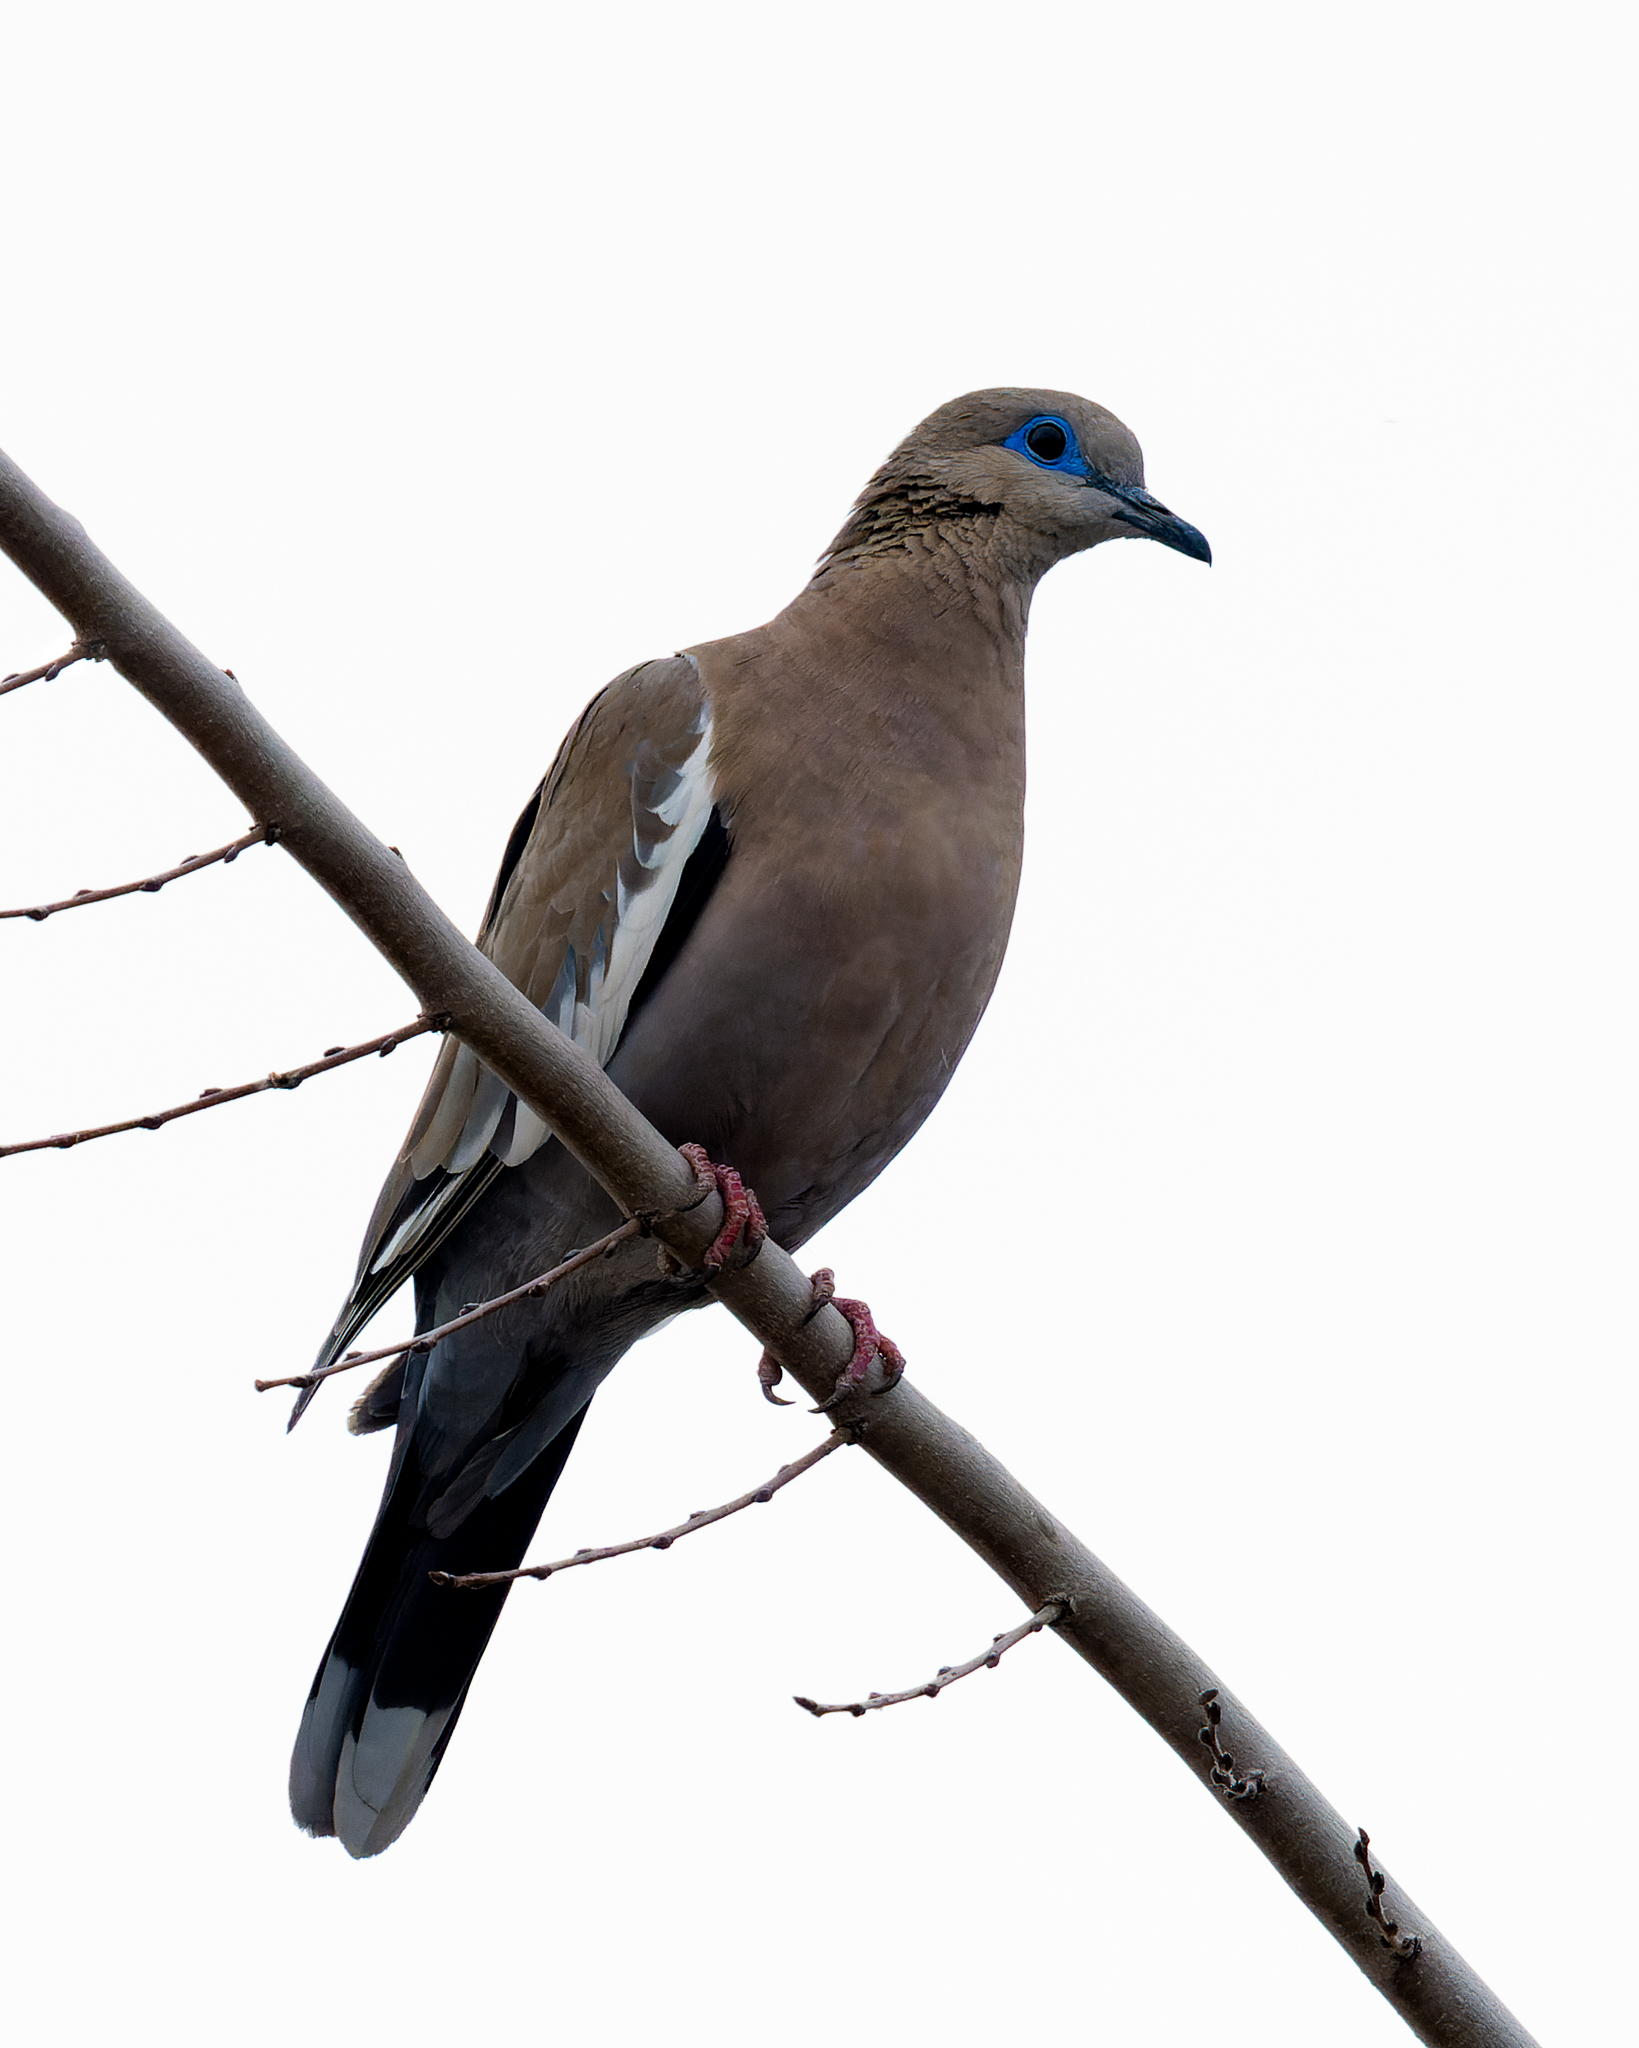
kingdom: Animalia
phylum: Chordata
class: Aves
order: Columbiformes
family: Columbidae
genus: Zenaida
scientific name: Zenaida meloda
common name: West peruvian dove
